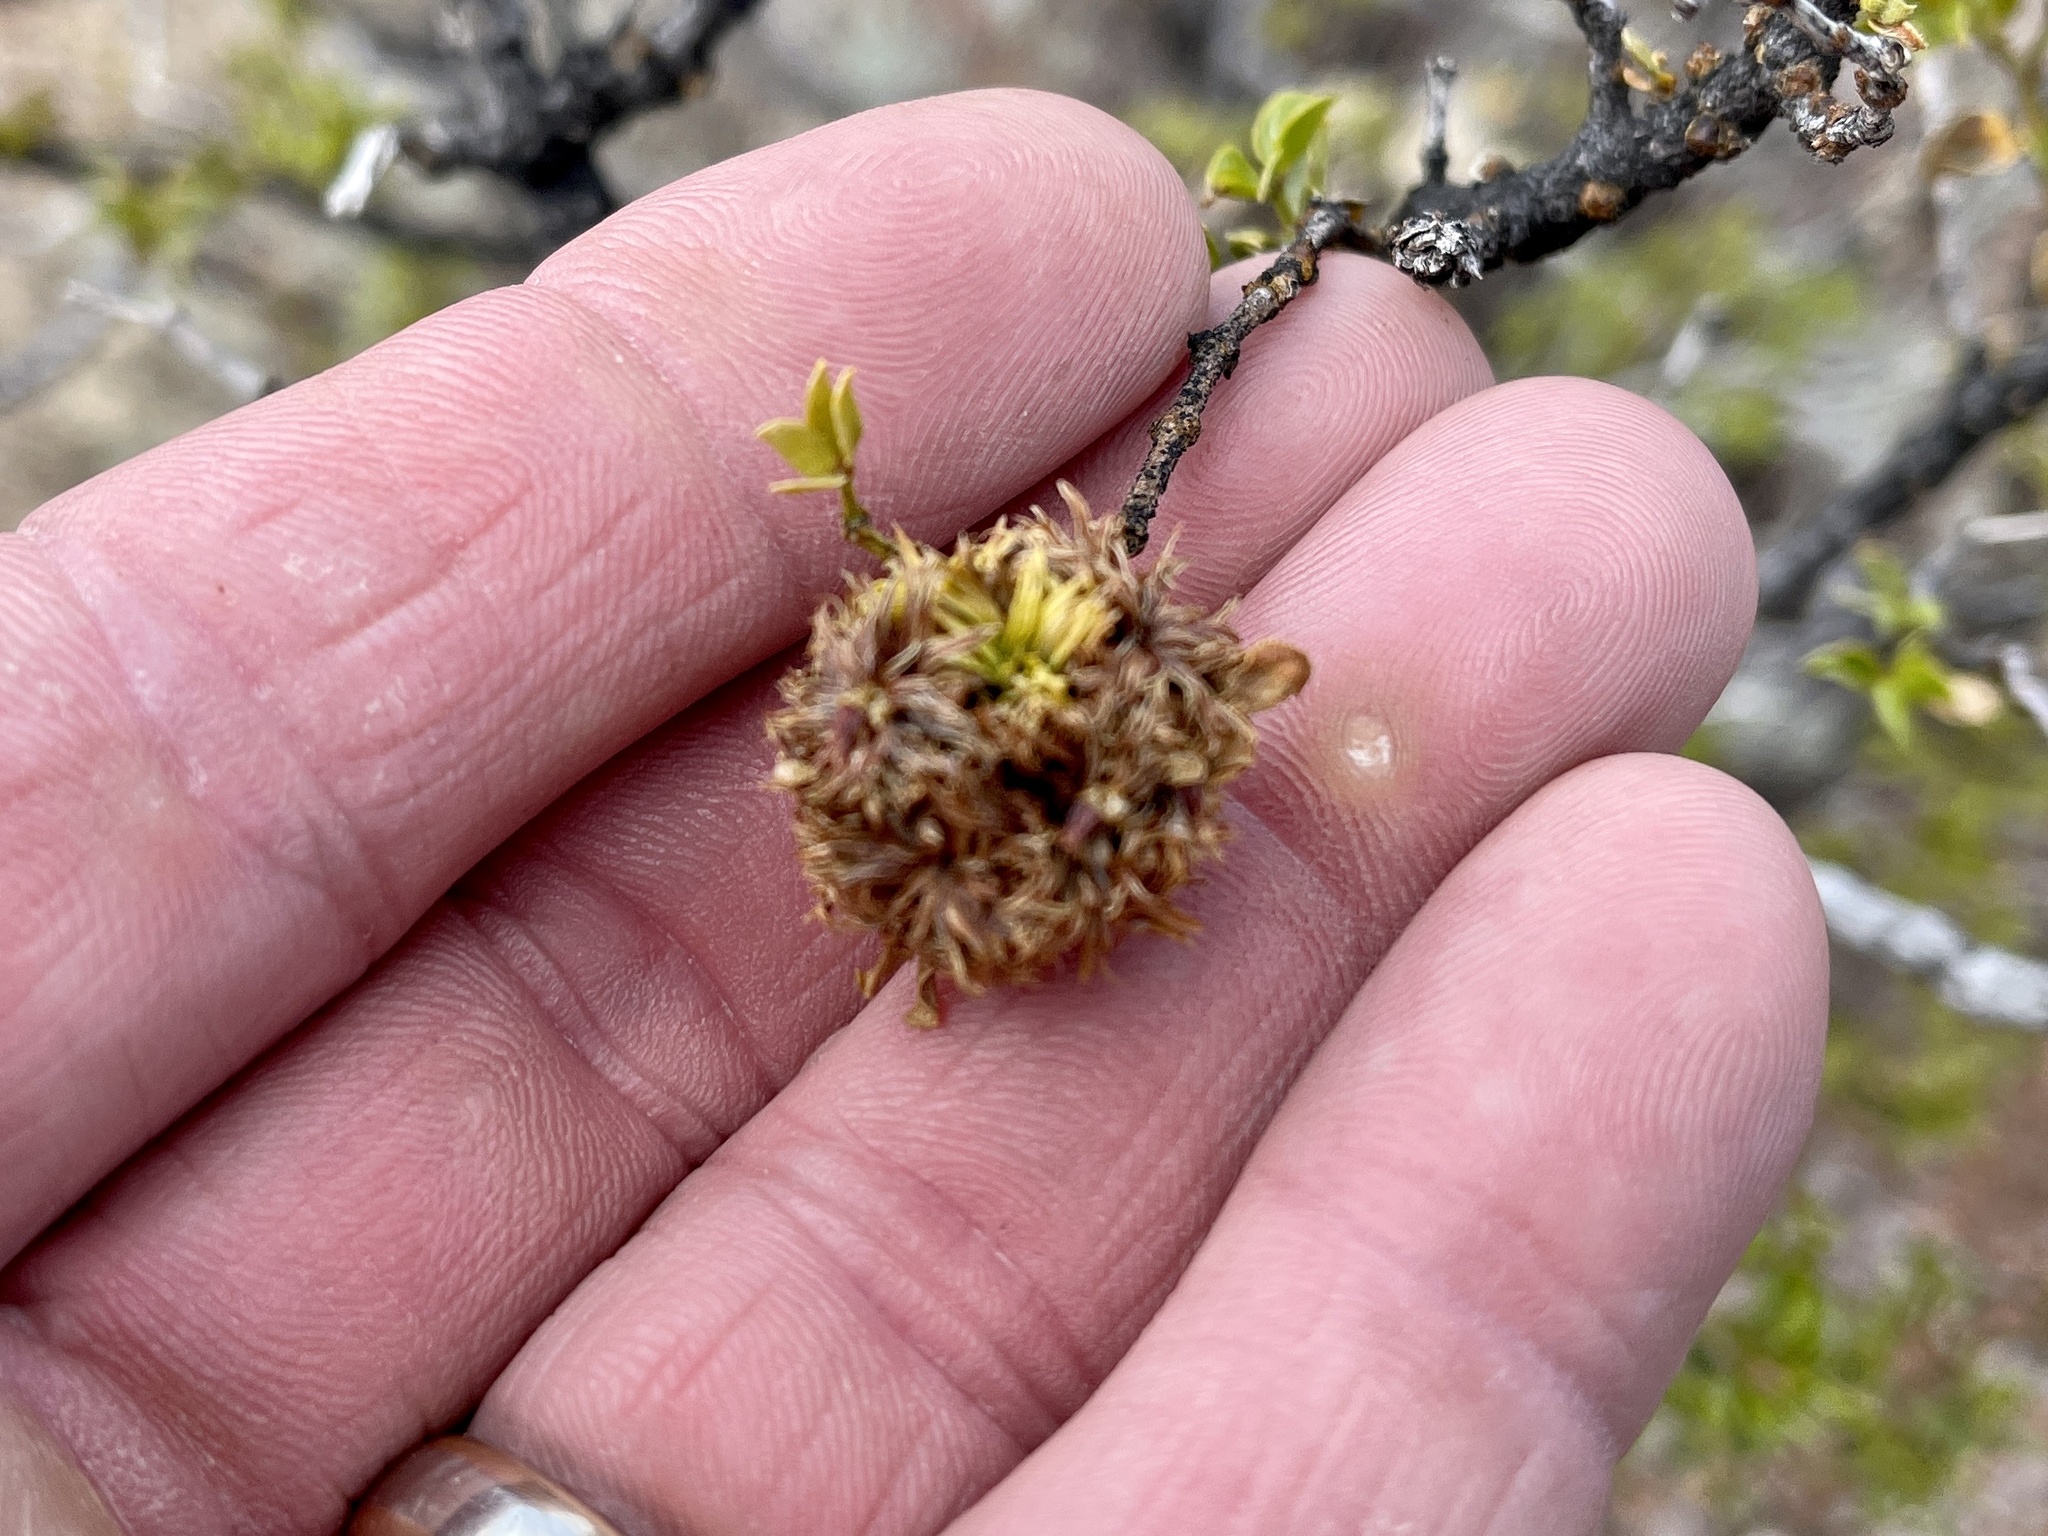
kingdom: Animalia
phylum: Arthropoda
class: Insecta
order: Diptera
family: Cecidomyiidae
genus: Asphondylia
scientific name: Asphondylia auripila
